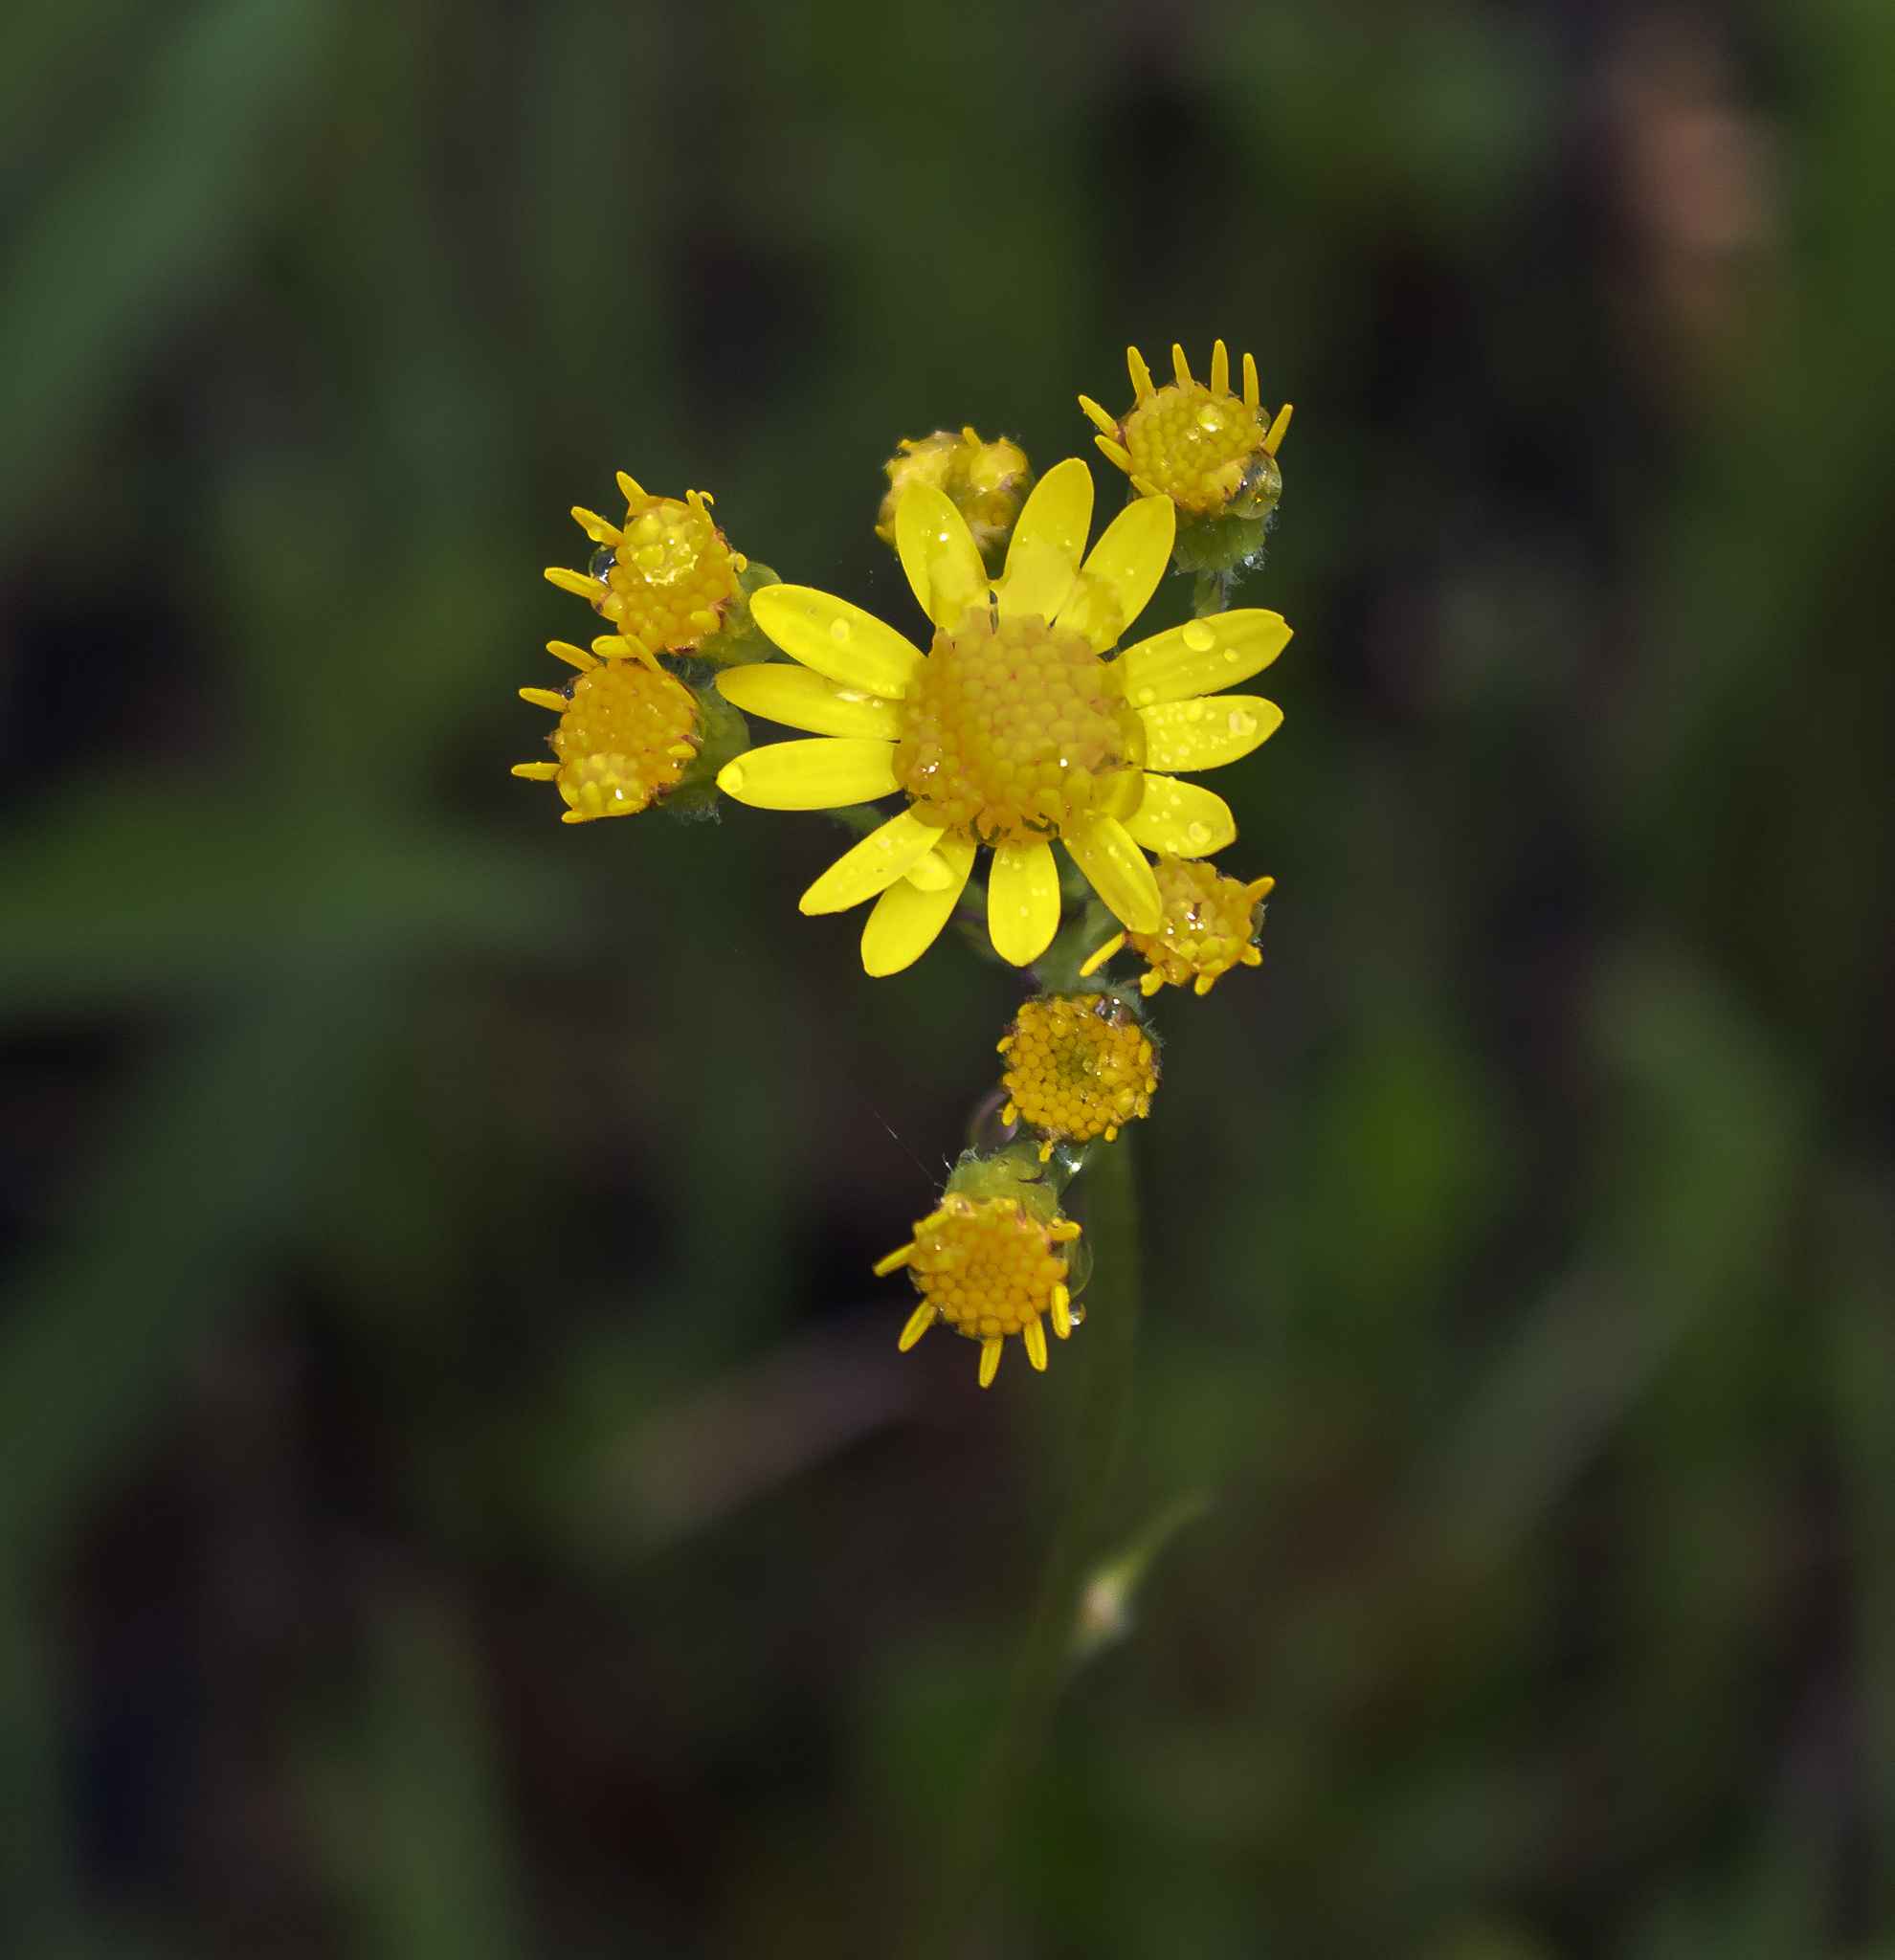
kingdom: Plantae
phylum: Tracheophyta
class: Magnoliopsida
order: Asterales
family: Asteraceae
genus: Packera
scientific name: Packera pseudaurea
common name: False-gold groundsel
